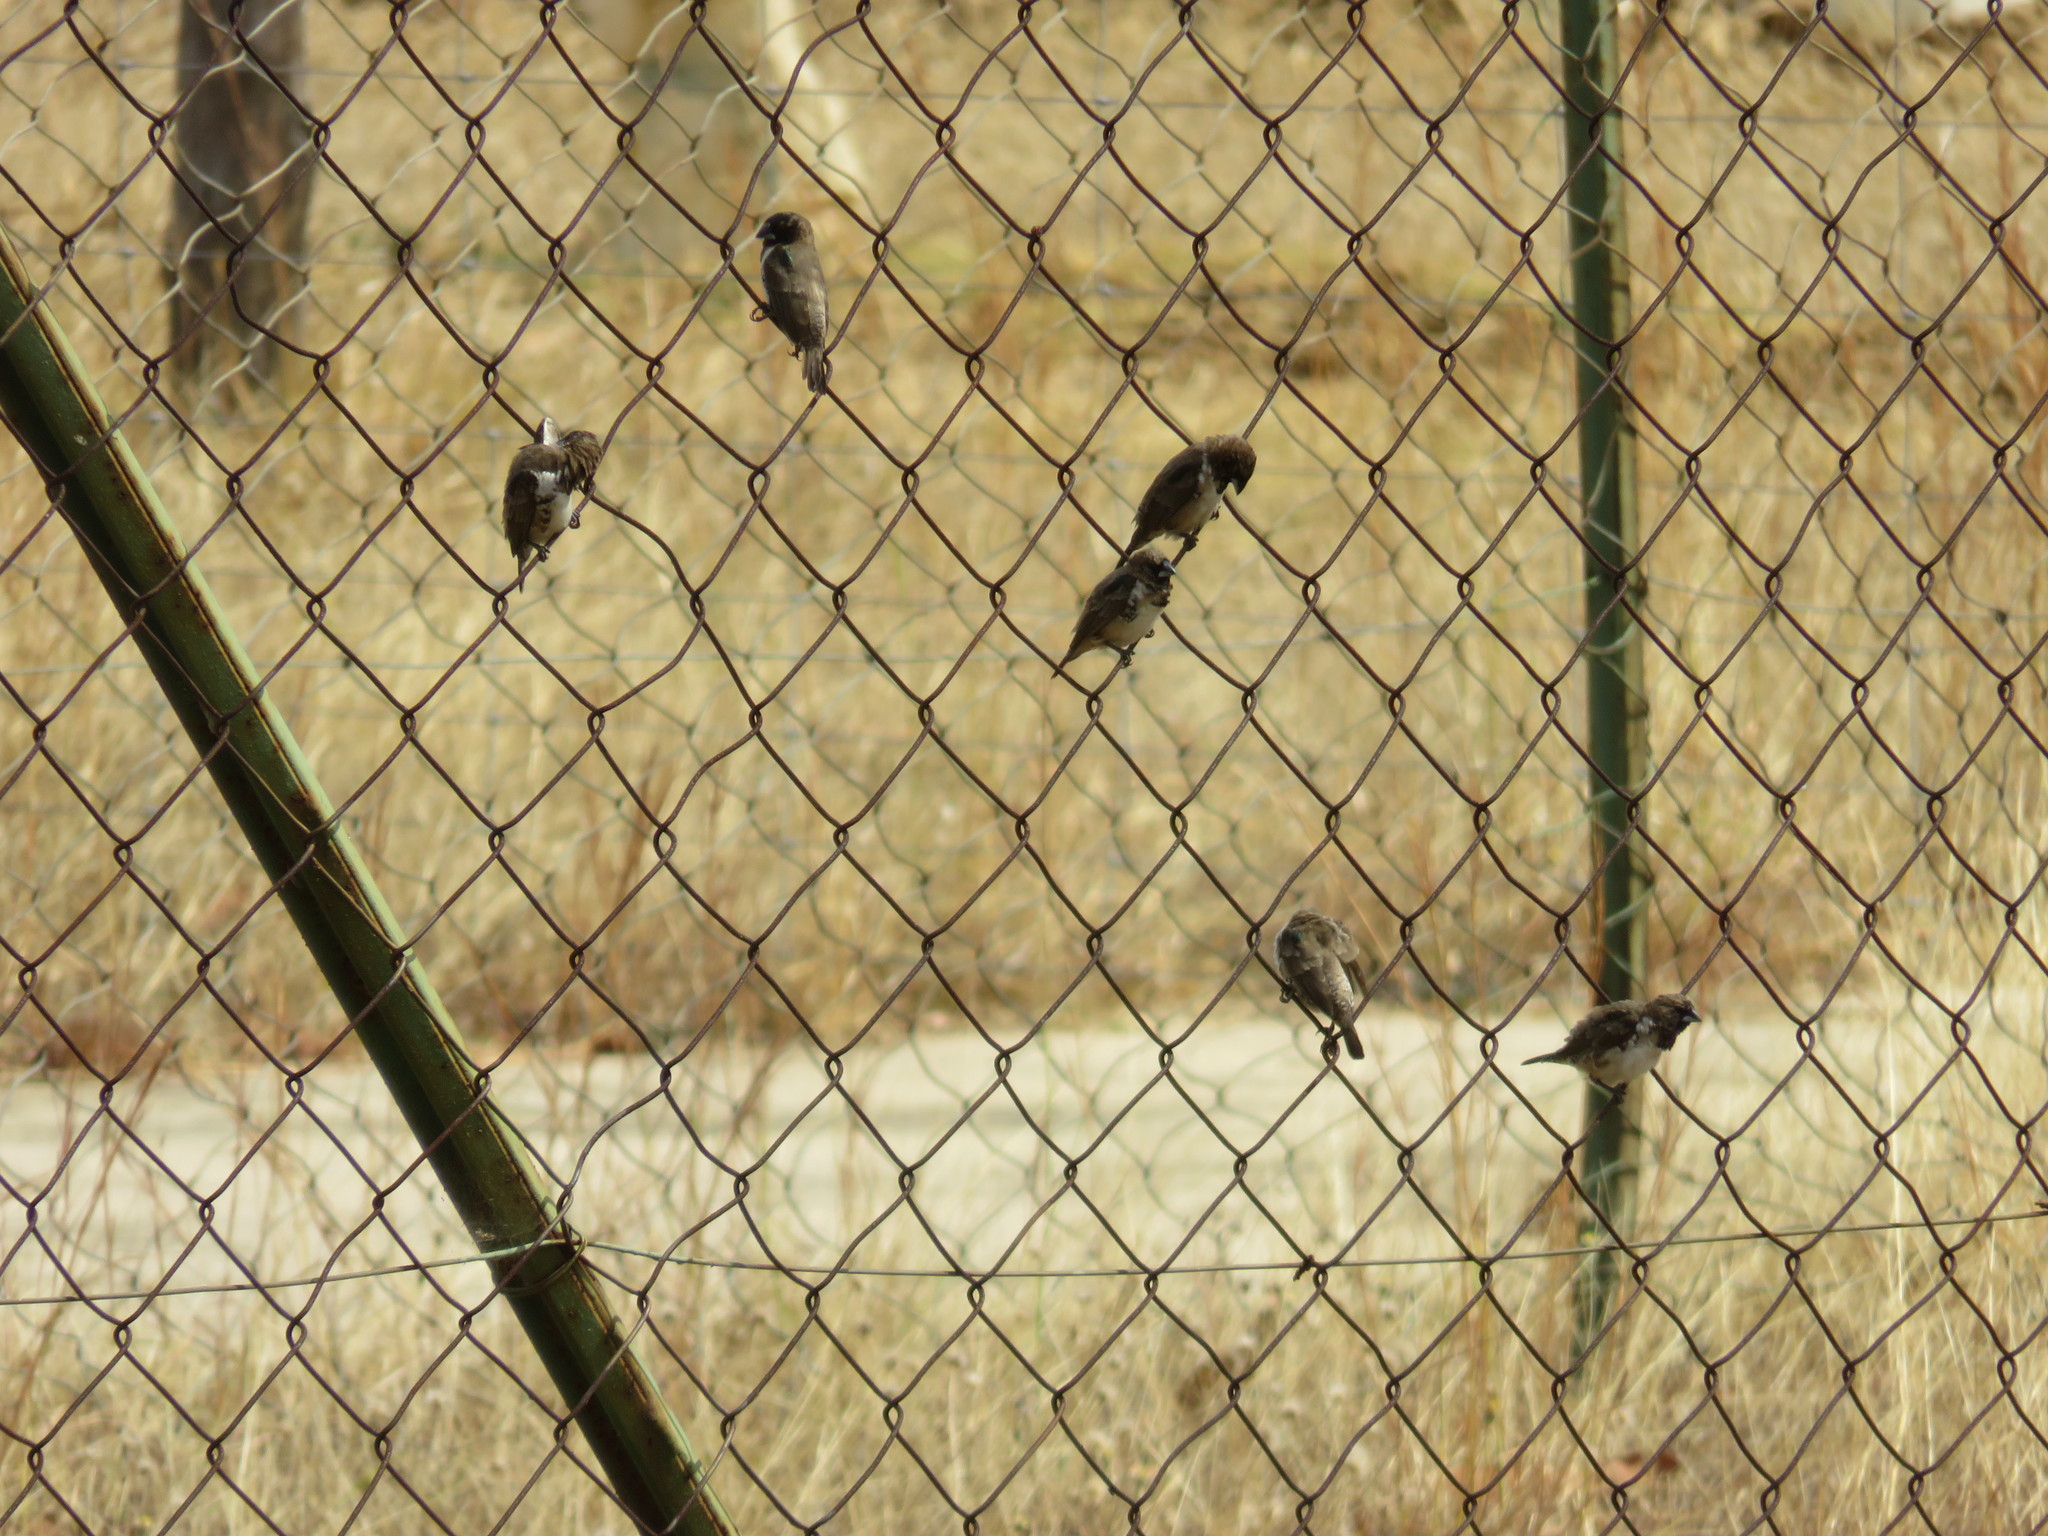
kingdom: Animalia
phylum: Chordata
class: Aves
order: Passeriformes
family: Estrildidae
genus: Lonchura
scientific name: Lonchura cucullata
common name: Bronze mannikin
